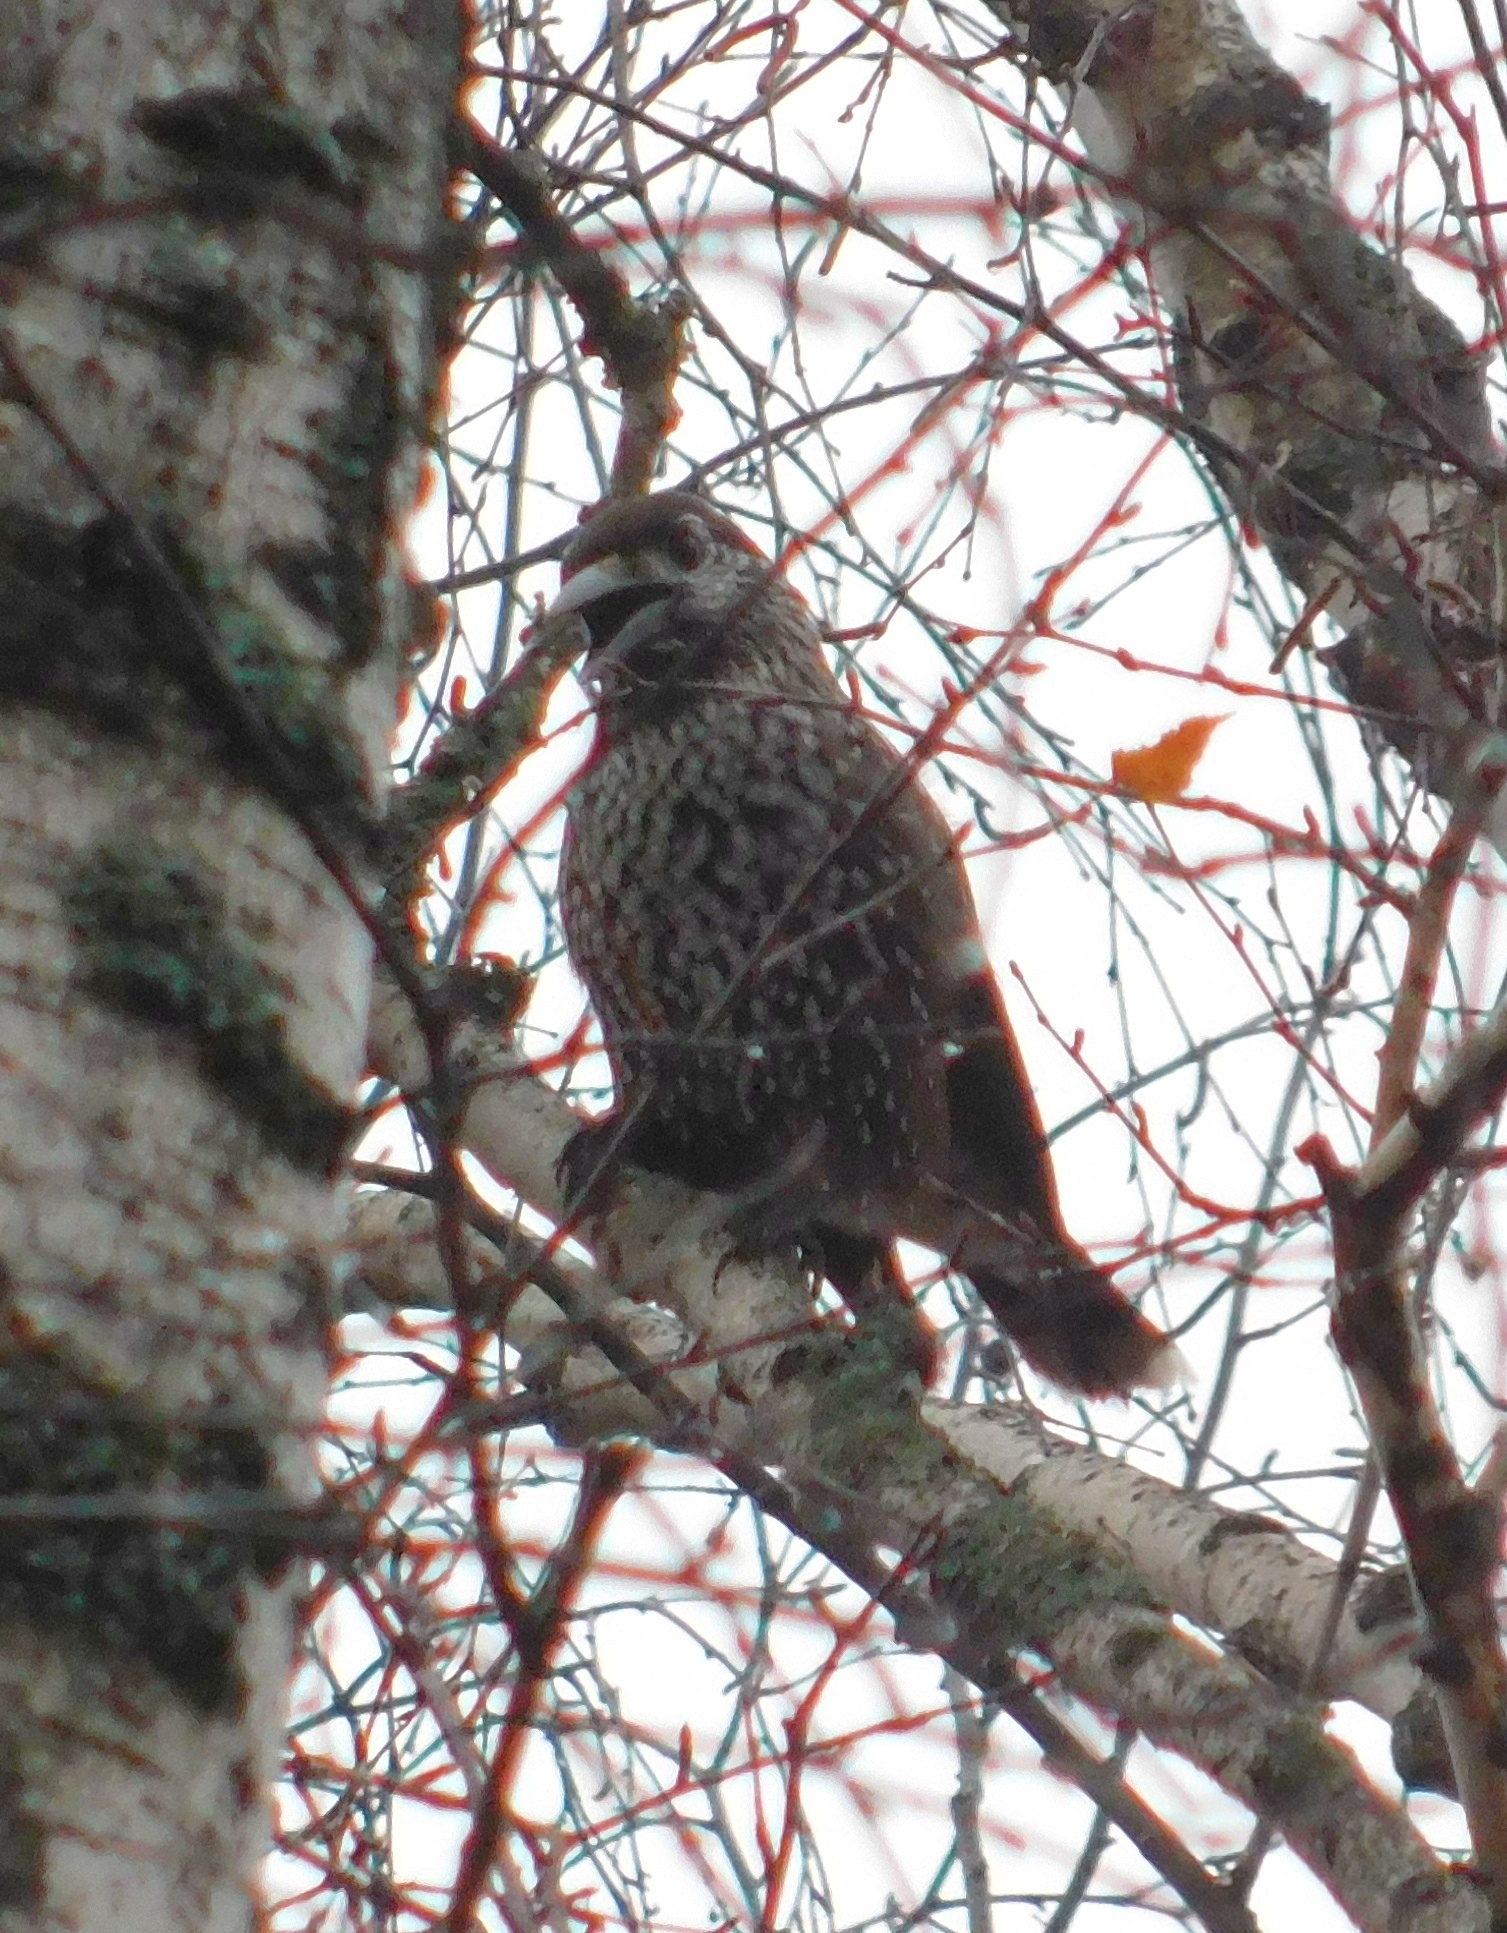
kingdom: Animalia
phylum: Chordata
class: Aves
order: Passeriformes
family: Corvidae
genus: Nucifraga
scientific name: Nucifraga caryocatactes
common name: Spotted nutcracker
